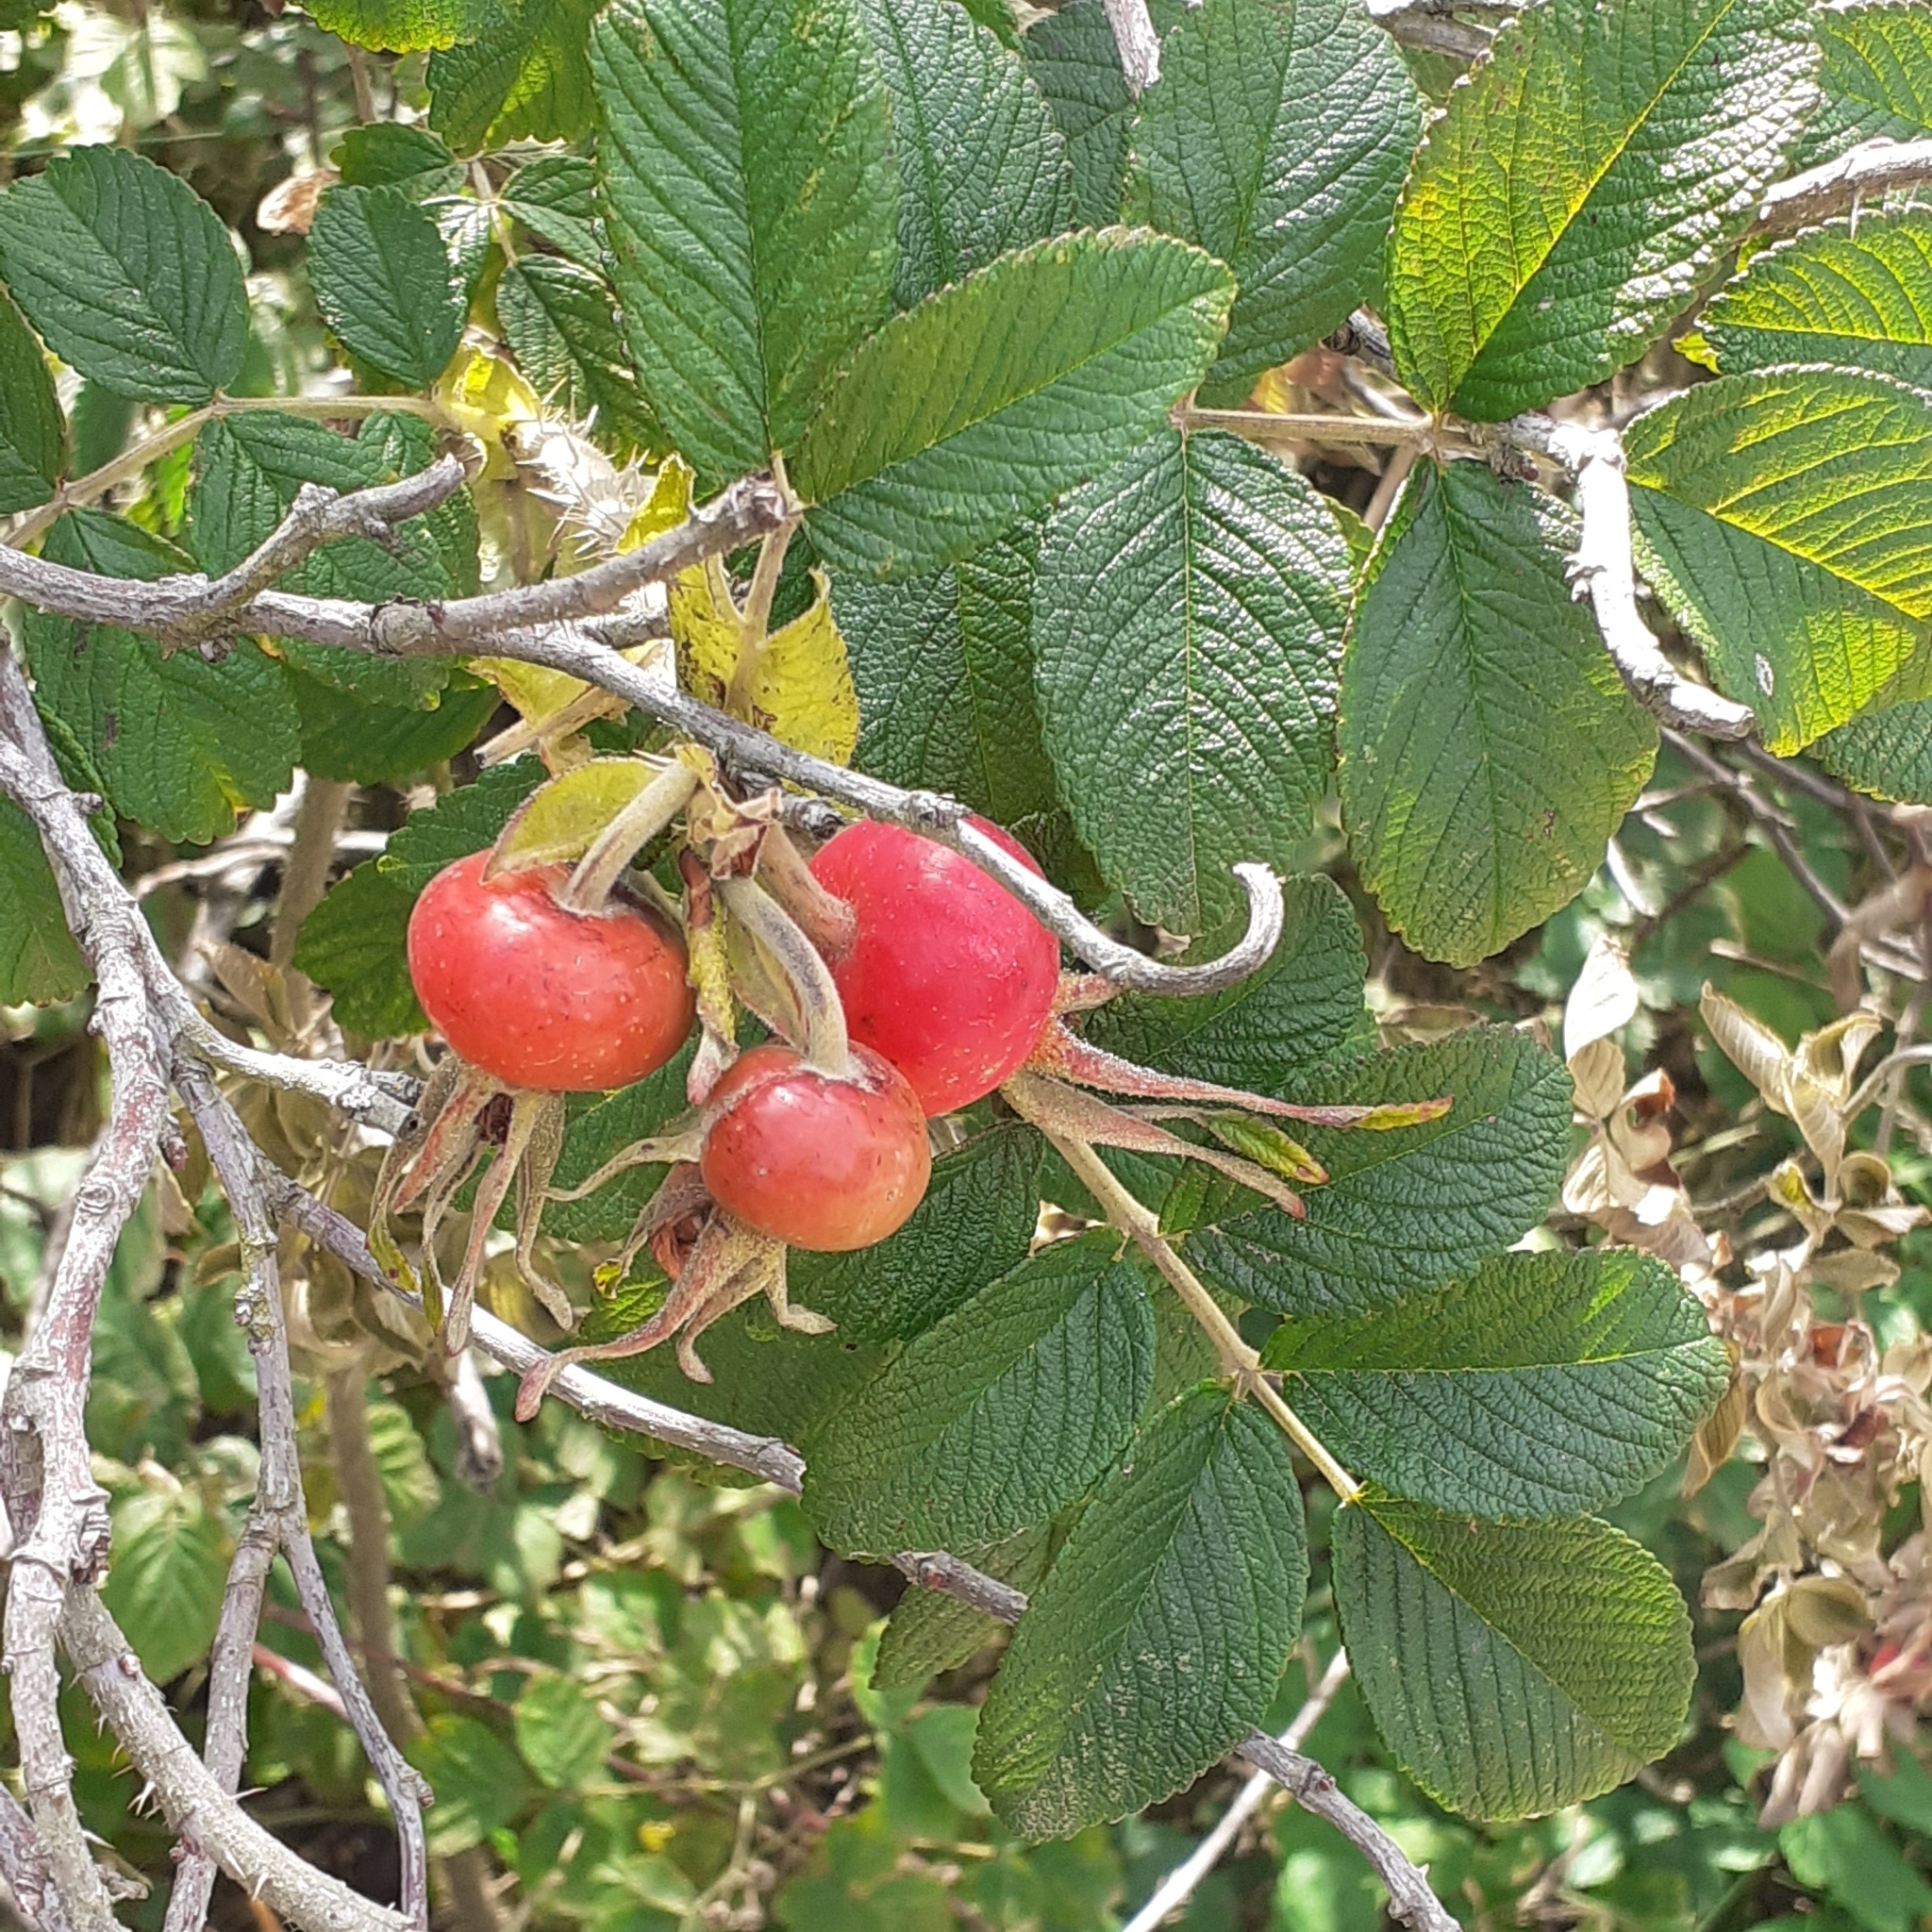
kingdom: Plantae
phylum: Tracheophyta
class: Magnoliopsida
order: Rosales
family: Rosaceae
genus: Rosa
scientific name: Rosa rugosa
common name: Japanese rose
